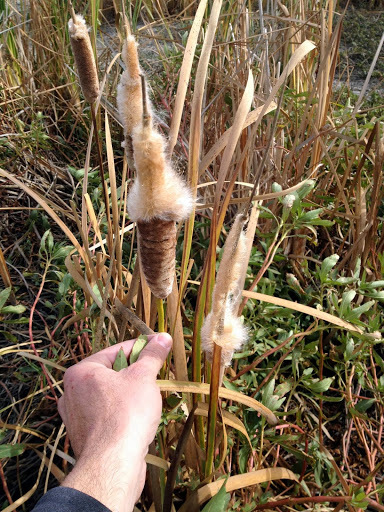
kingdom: Plantae
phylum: Tracheophyta
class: Liliopsida
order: Poales
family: Typhaceae
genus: Typha
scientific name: Typha
